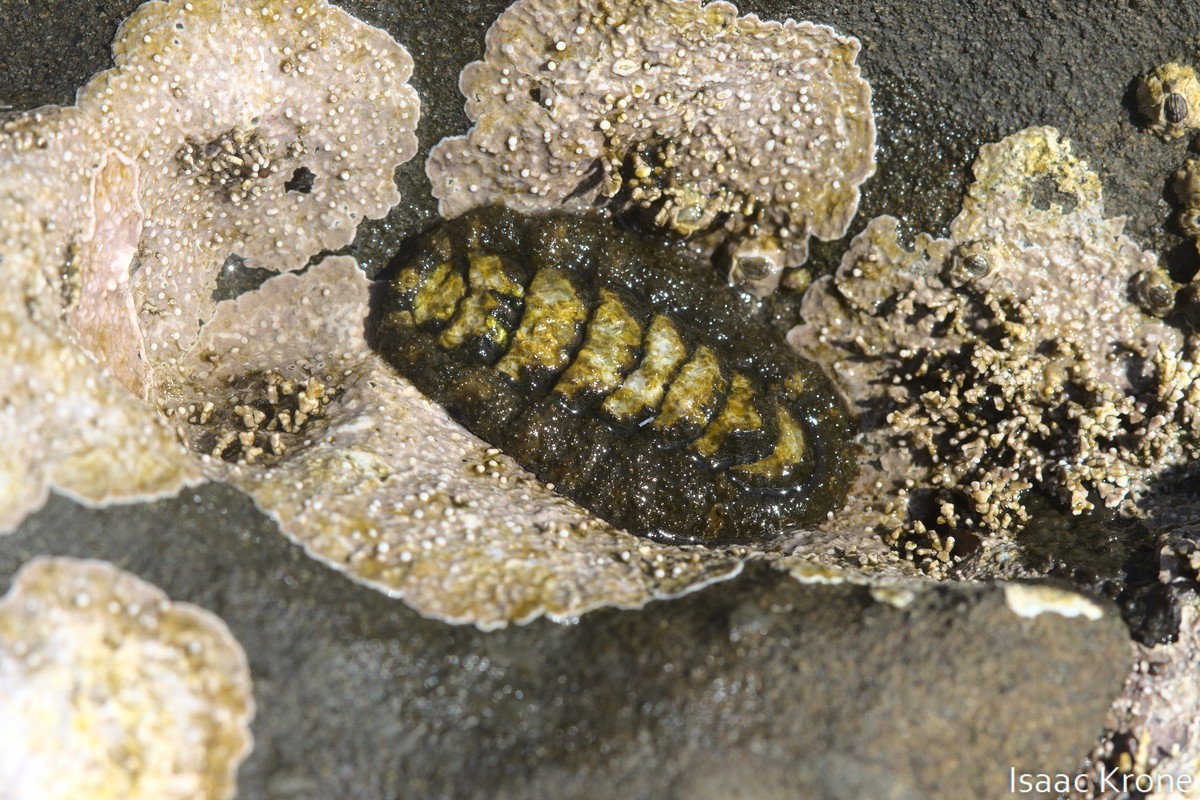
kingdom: Animalia
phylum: Mollusca
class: Polyplacophora
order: Chitonida
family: Tonicellidae
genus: Nuttallina
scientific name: Nuttallina californica
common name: California nuttall chiton
